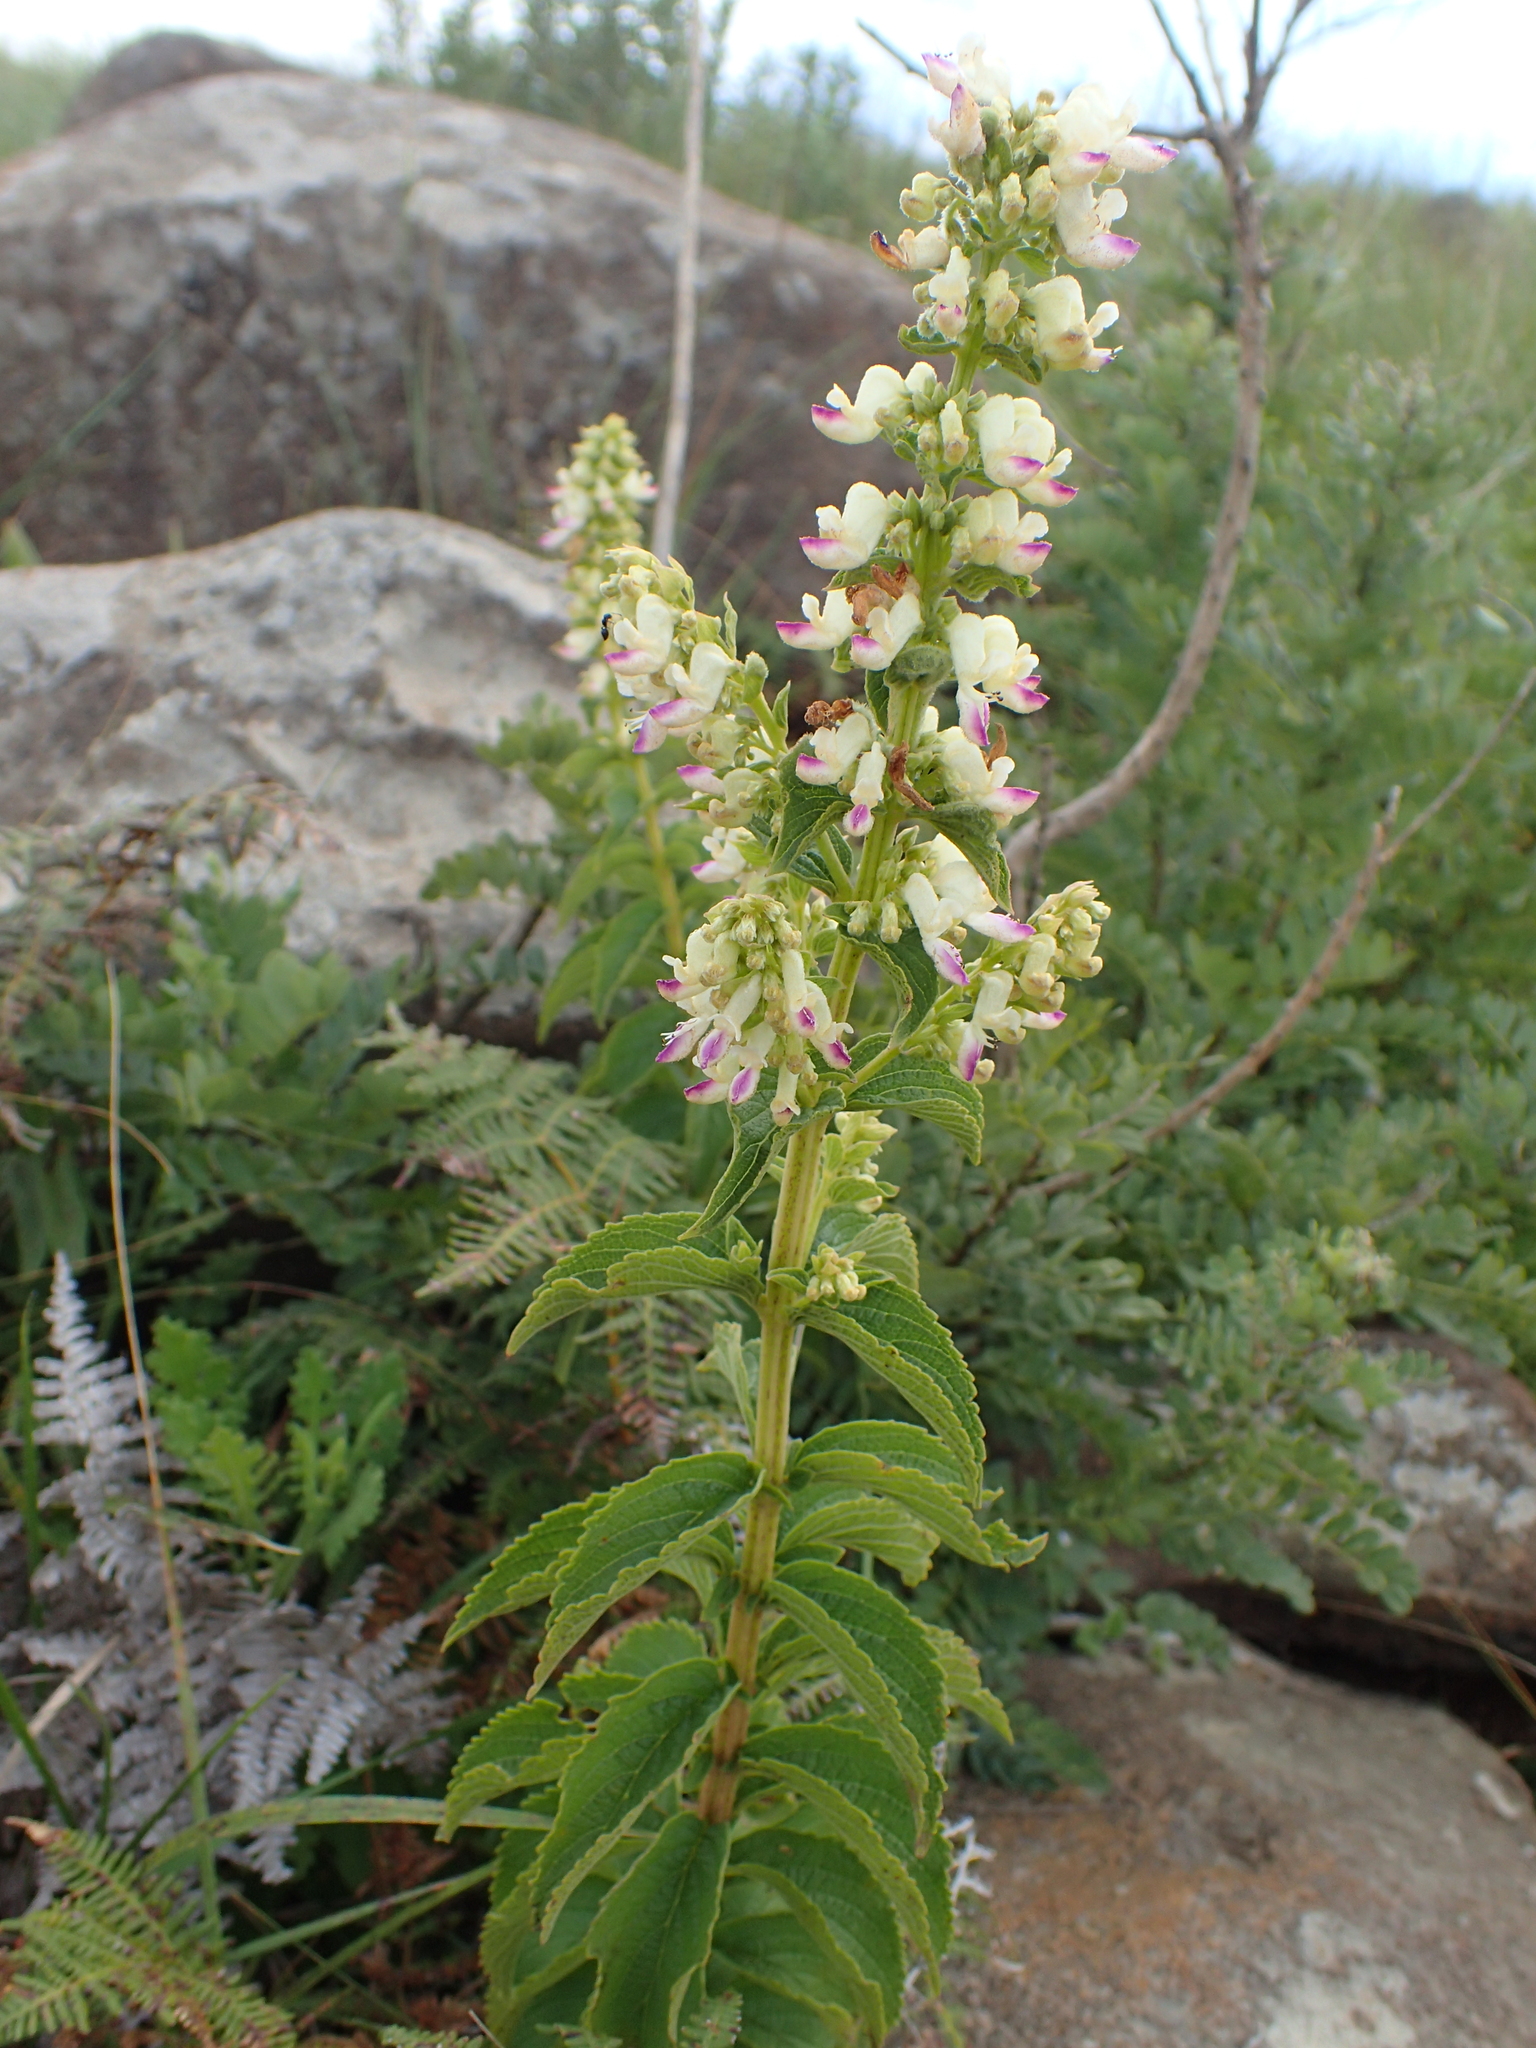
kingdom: Plantae
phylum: Tracheophyta
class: Magnoliopsida
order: Lamiales
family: Lamiaceae
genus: Coleus
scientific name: Coleus calycinus
